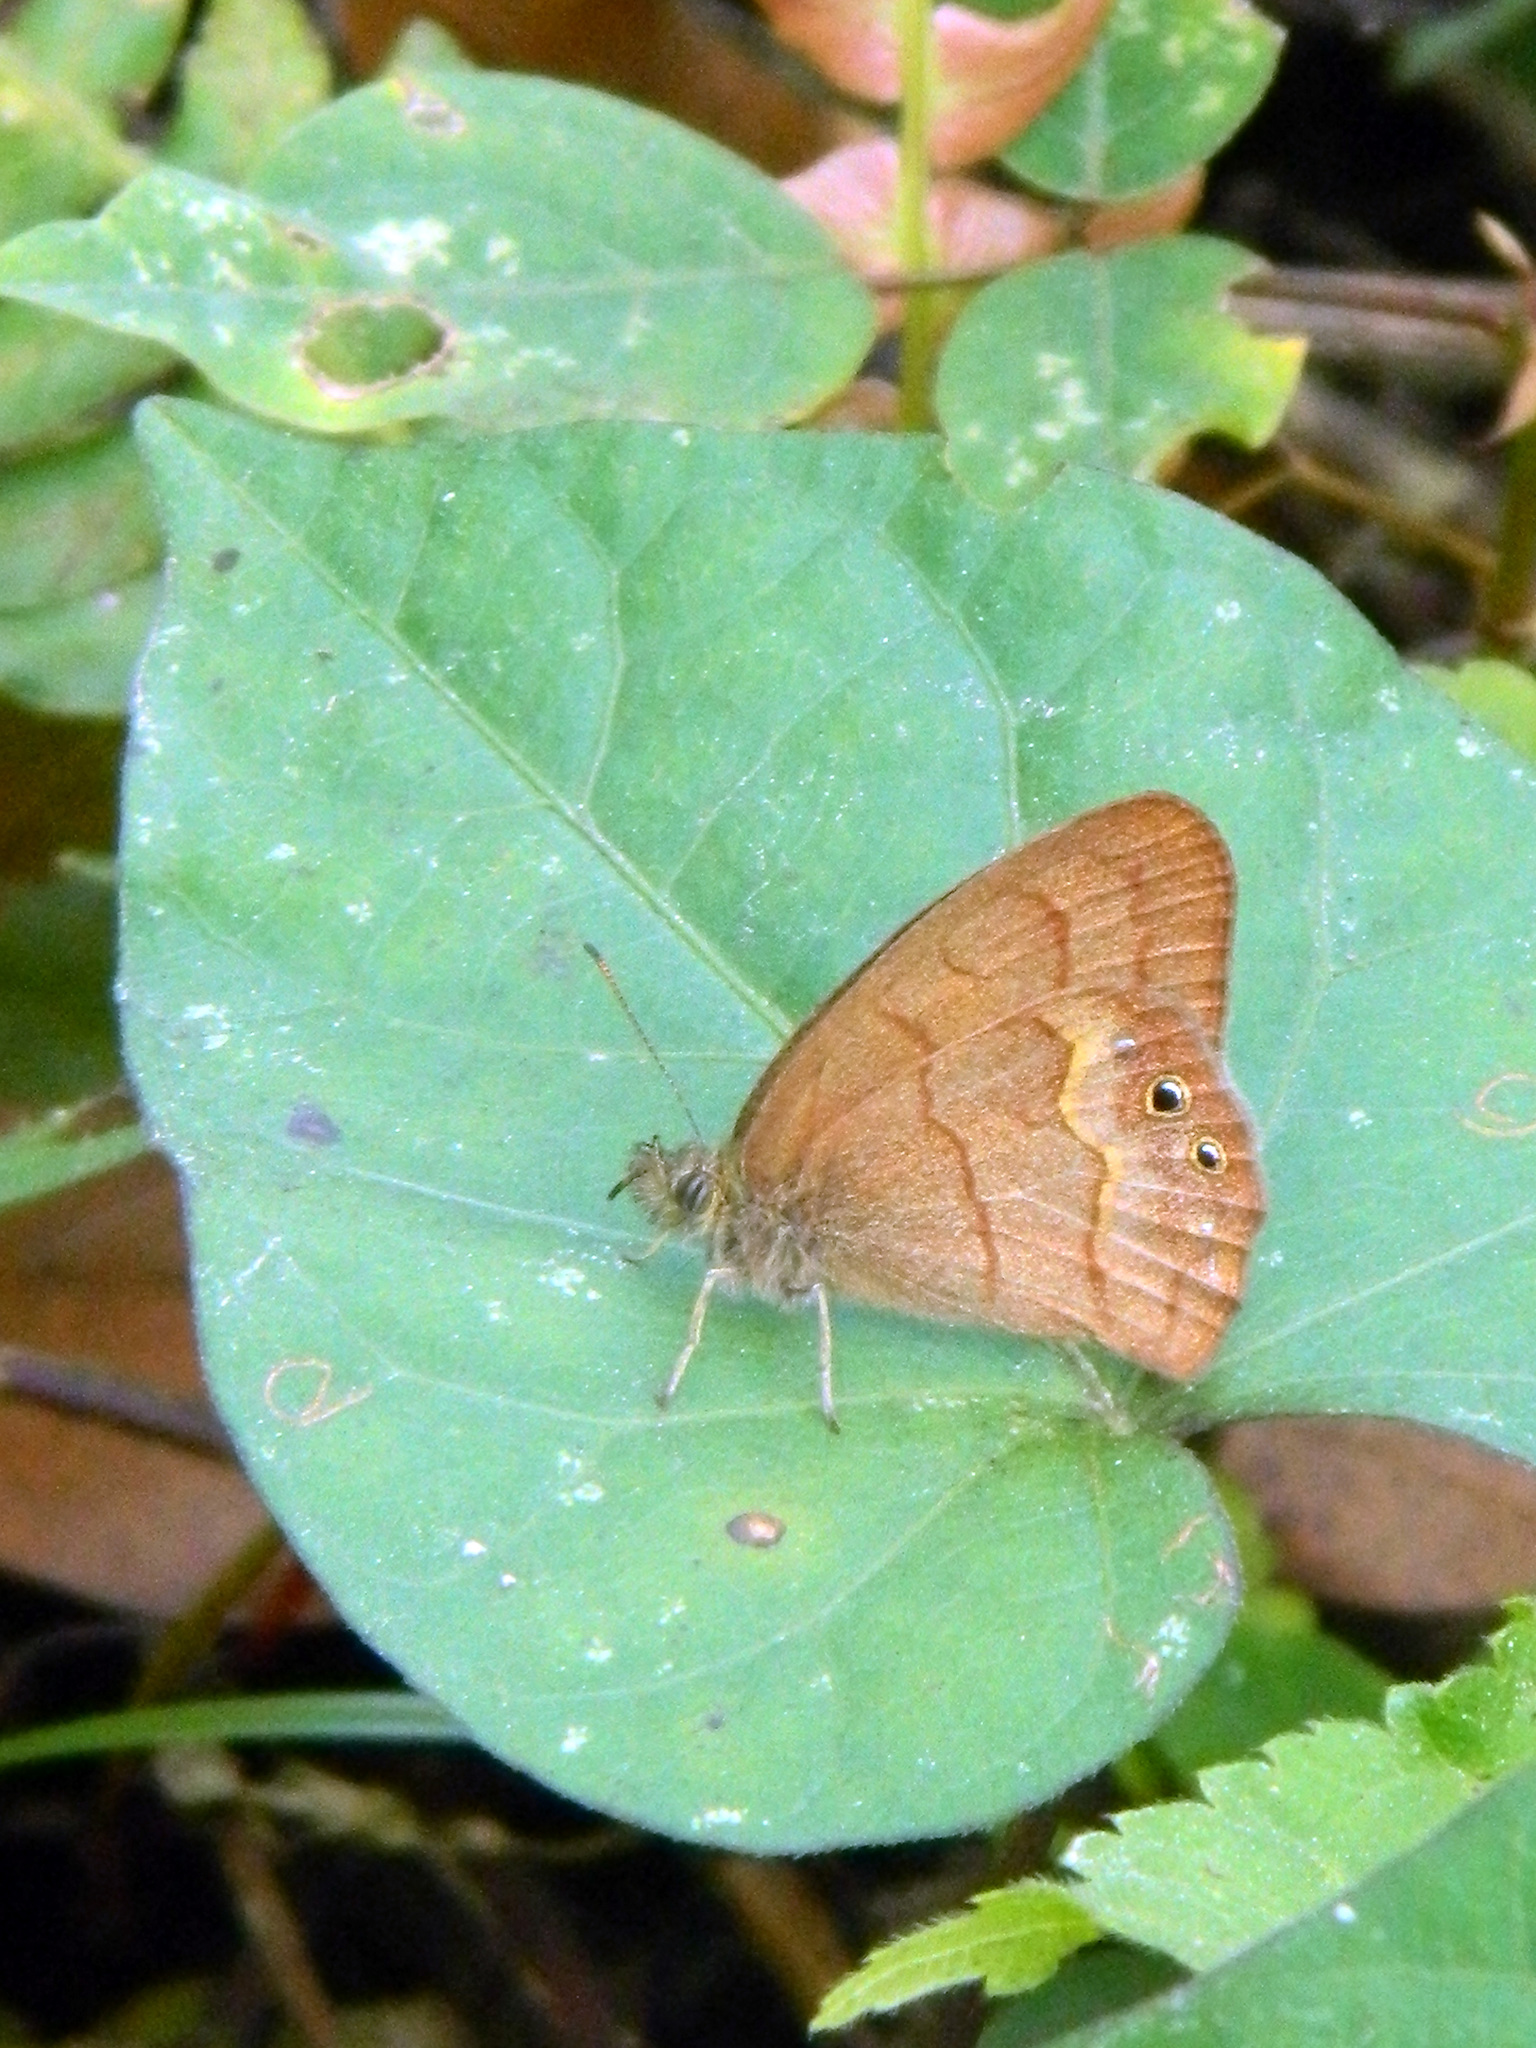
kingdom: Animalia
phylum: Arthropoda
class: Insecta
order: Lepidoptera
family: Nymphalidae
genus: Euptychia
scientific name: Euptychia
